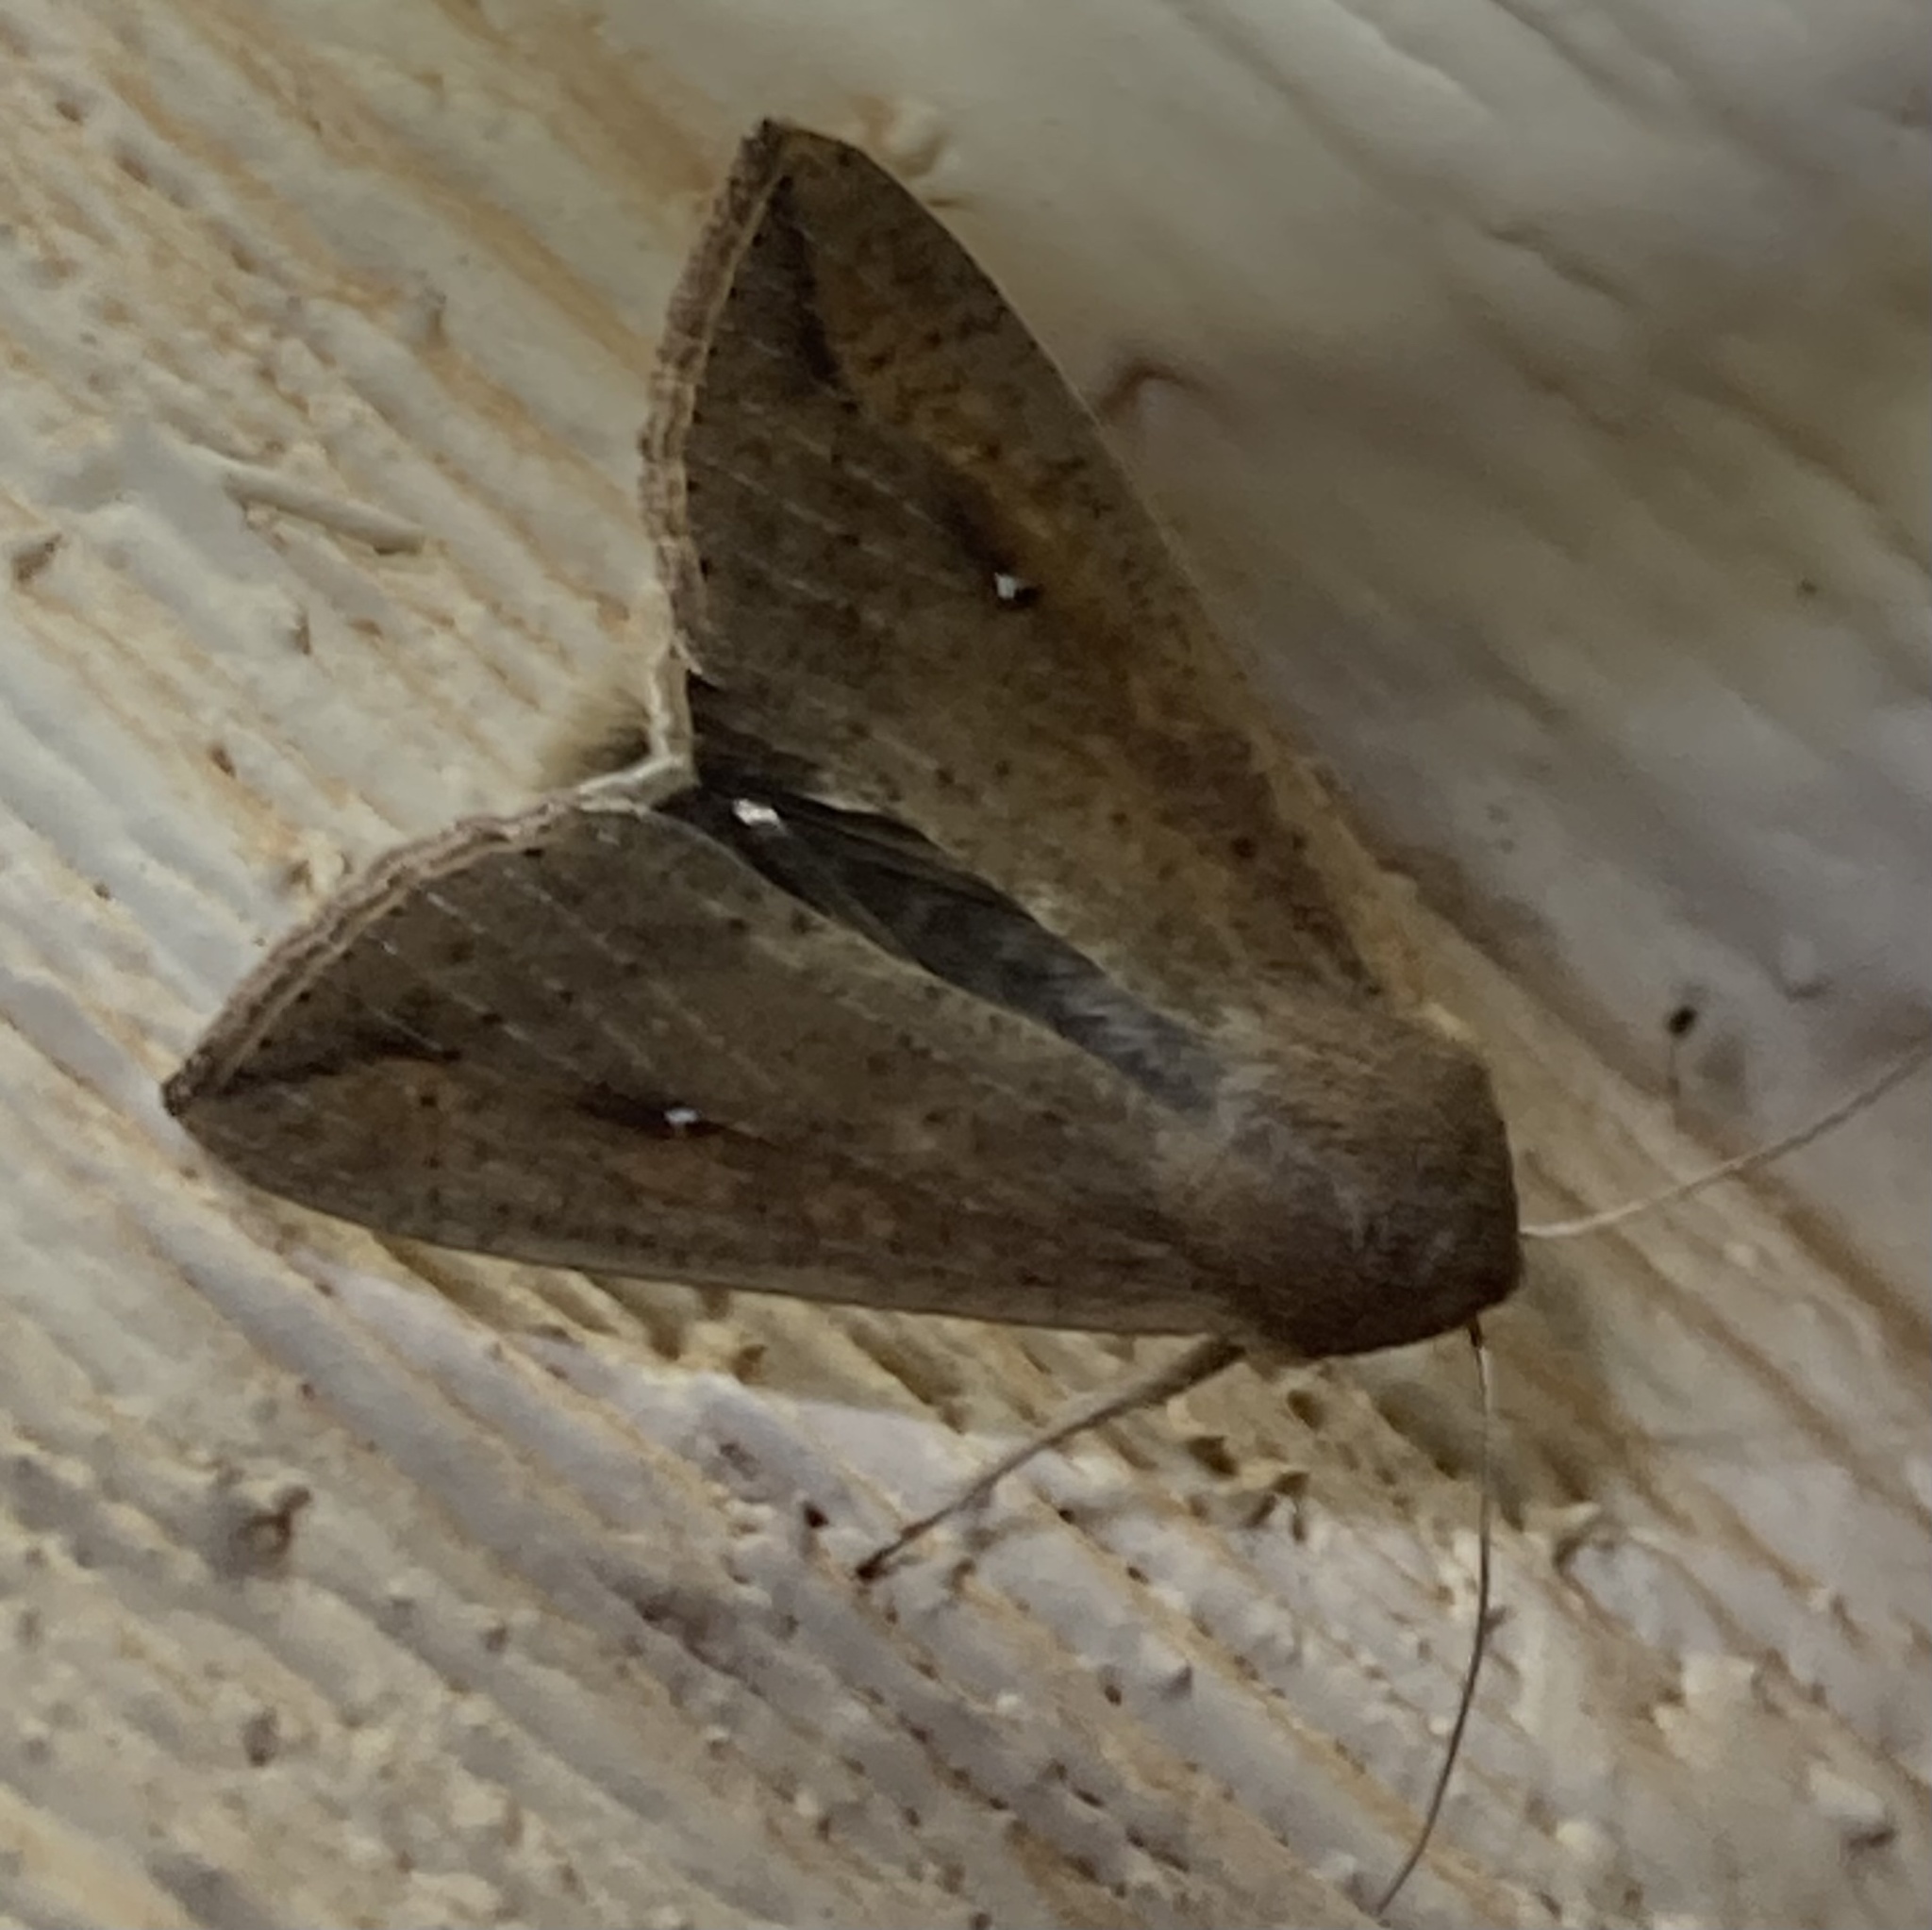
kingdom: Animalia
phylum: Arthropoda
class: Insecta
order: Lepidoptera
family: Noctuidae
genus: Mythimna
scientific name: Mythimna unipuncta
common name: White-speck
